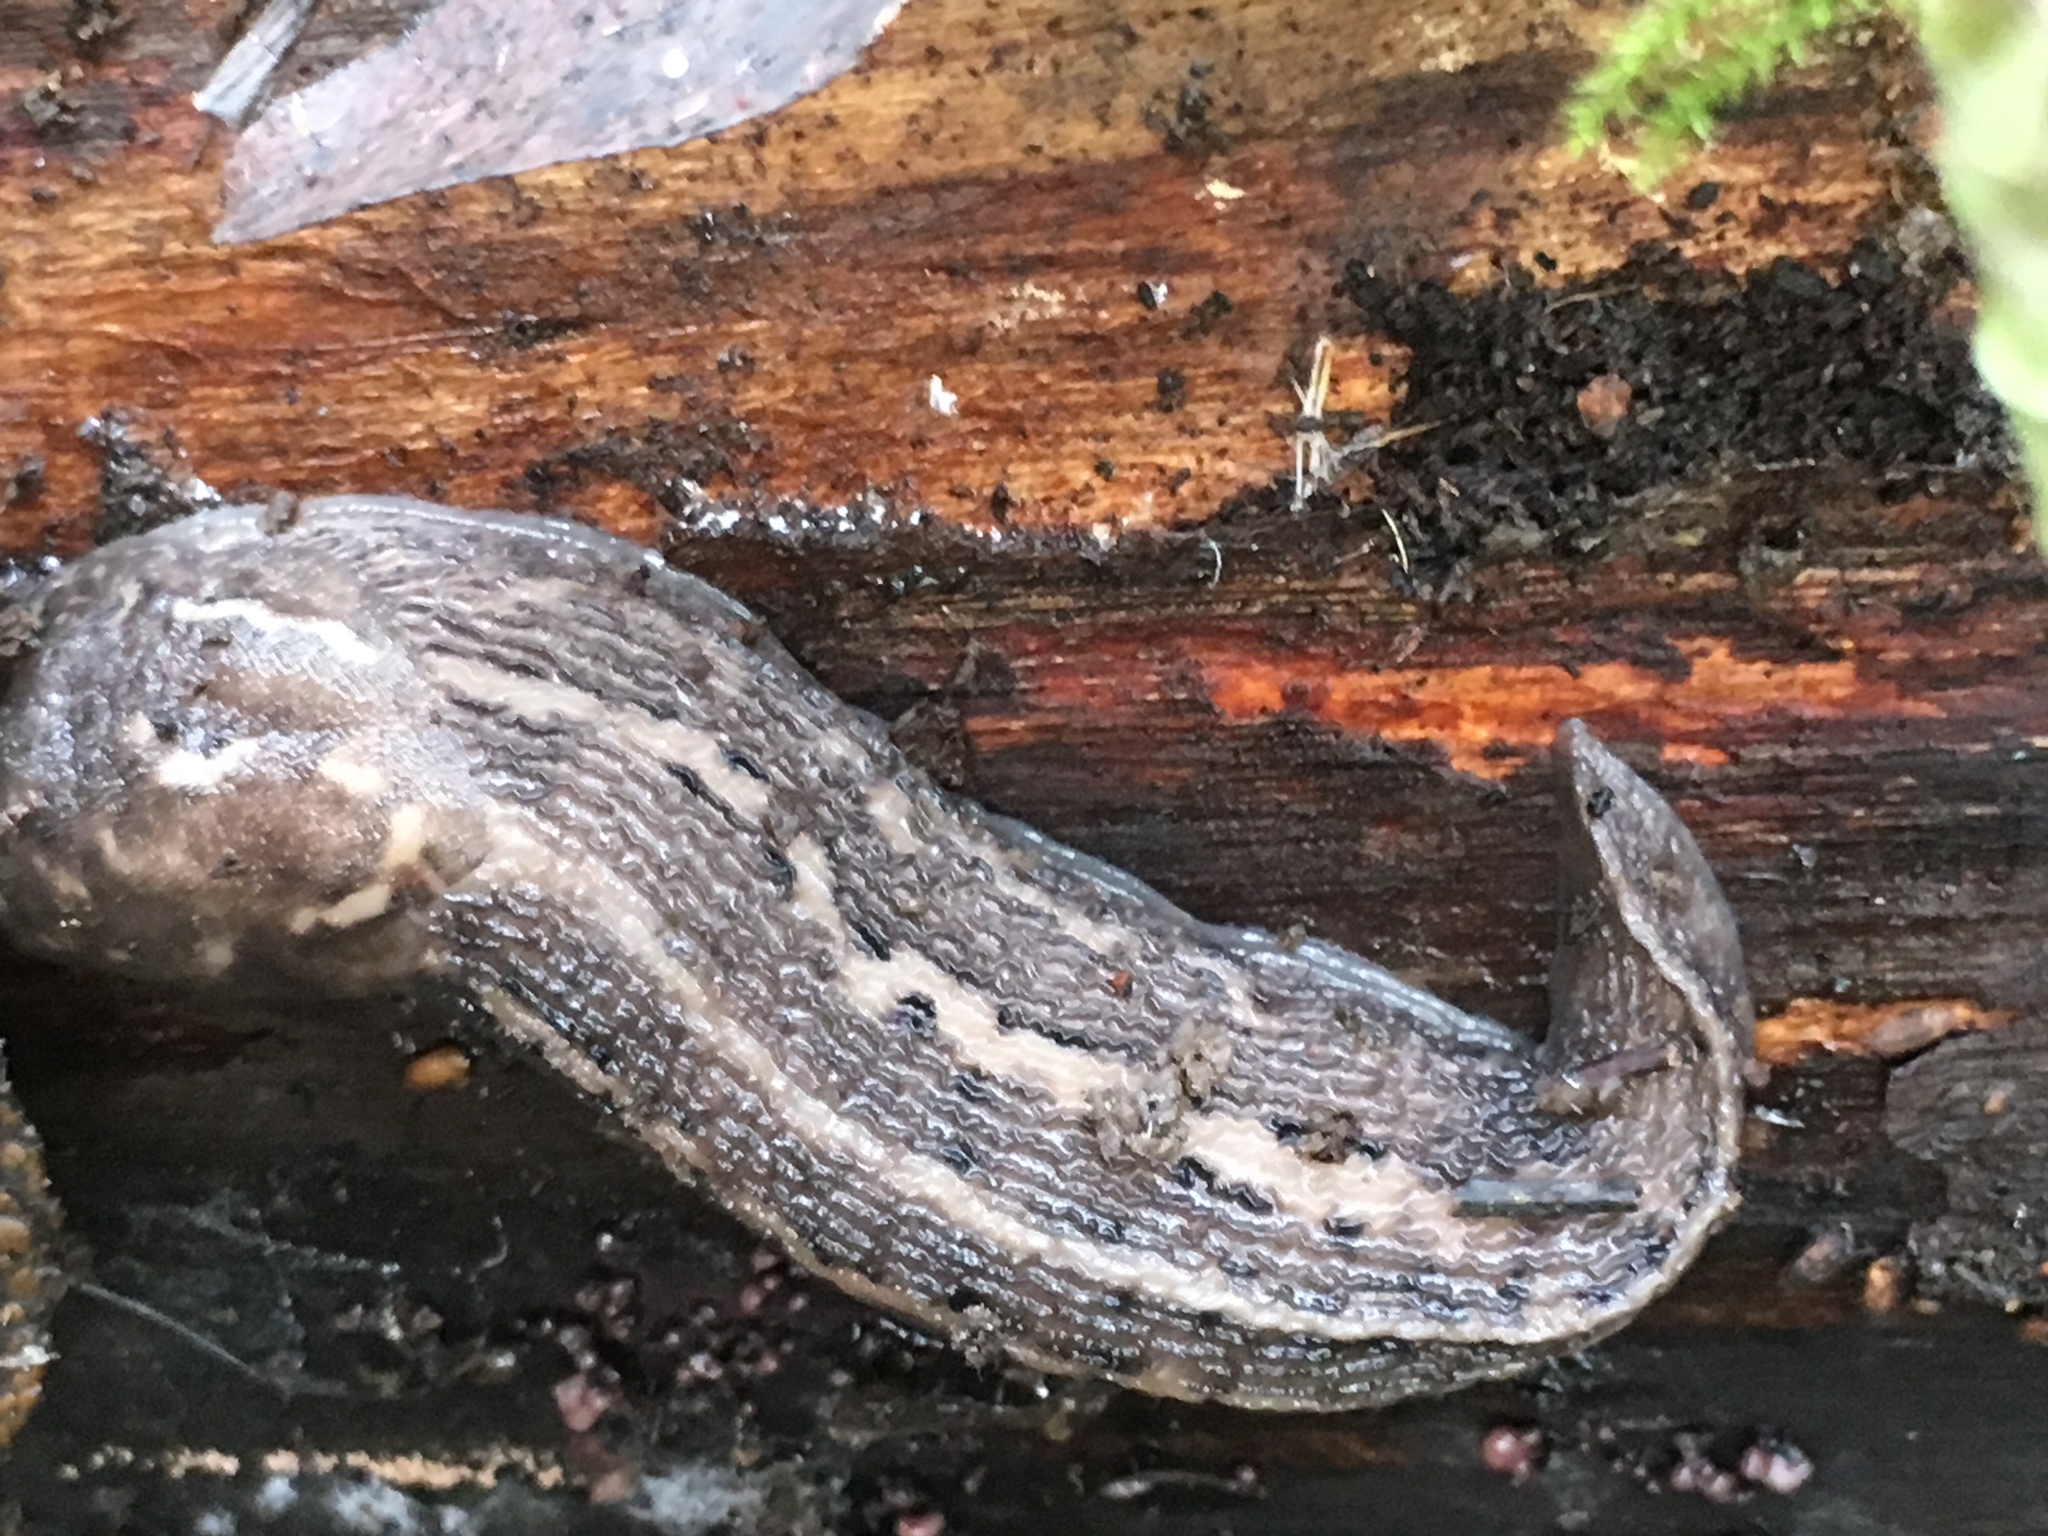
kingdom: Animalia
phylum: Mollusca
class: Gastropoda
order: Stylommatophora
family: Limacidae
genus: Limax
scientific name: Limax maximus
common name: Great grey slug
